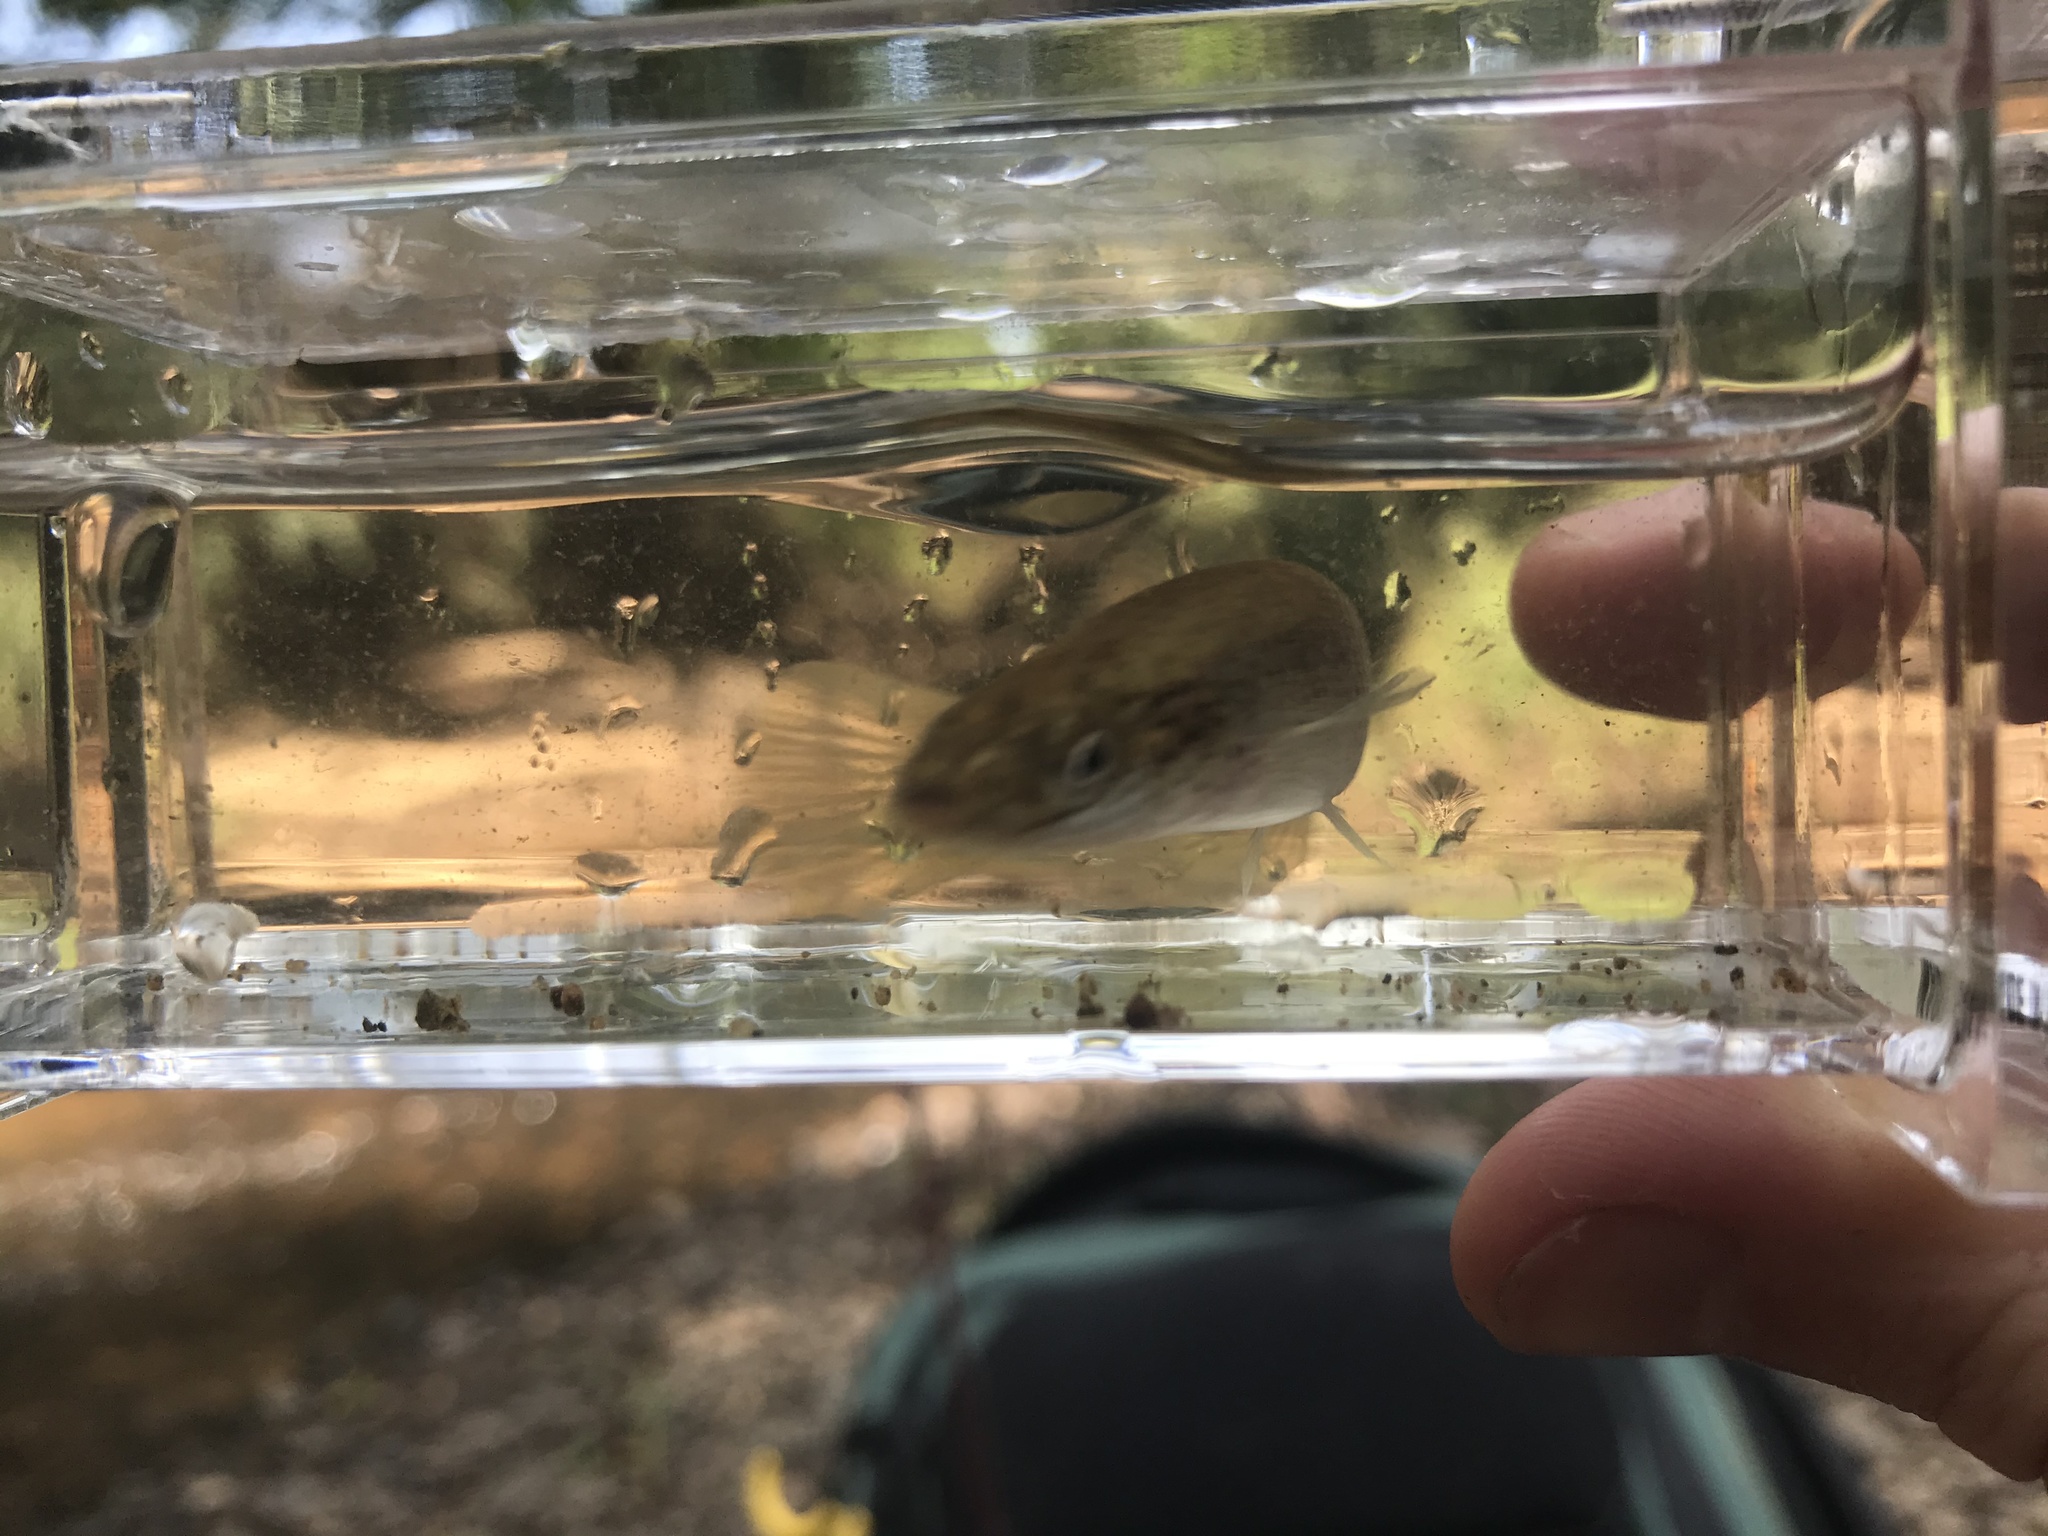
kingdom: Animalia
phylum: Chordata
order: Cyprinodontiformes
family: Fundulidae
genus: Fundulus
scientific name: Fundulus rathbuni
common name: Speckled killifish
